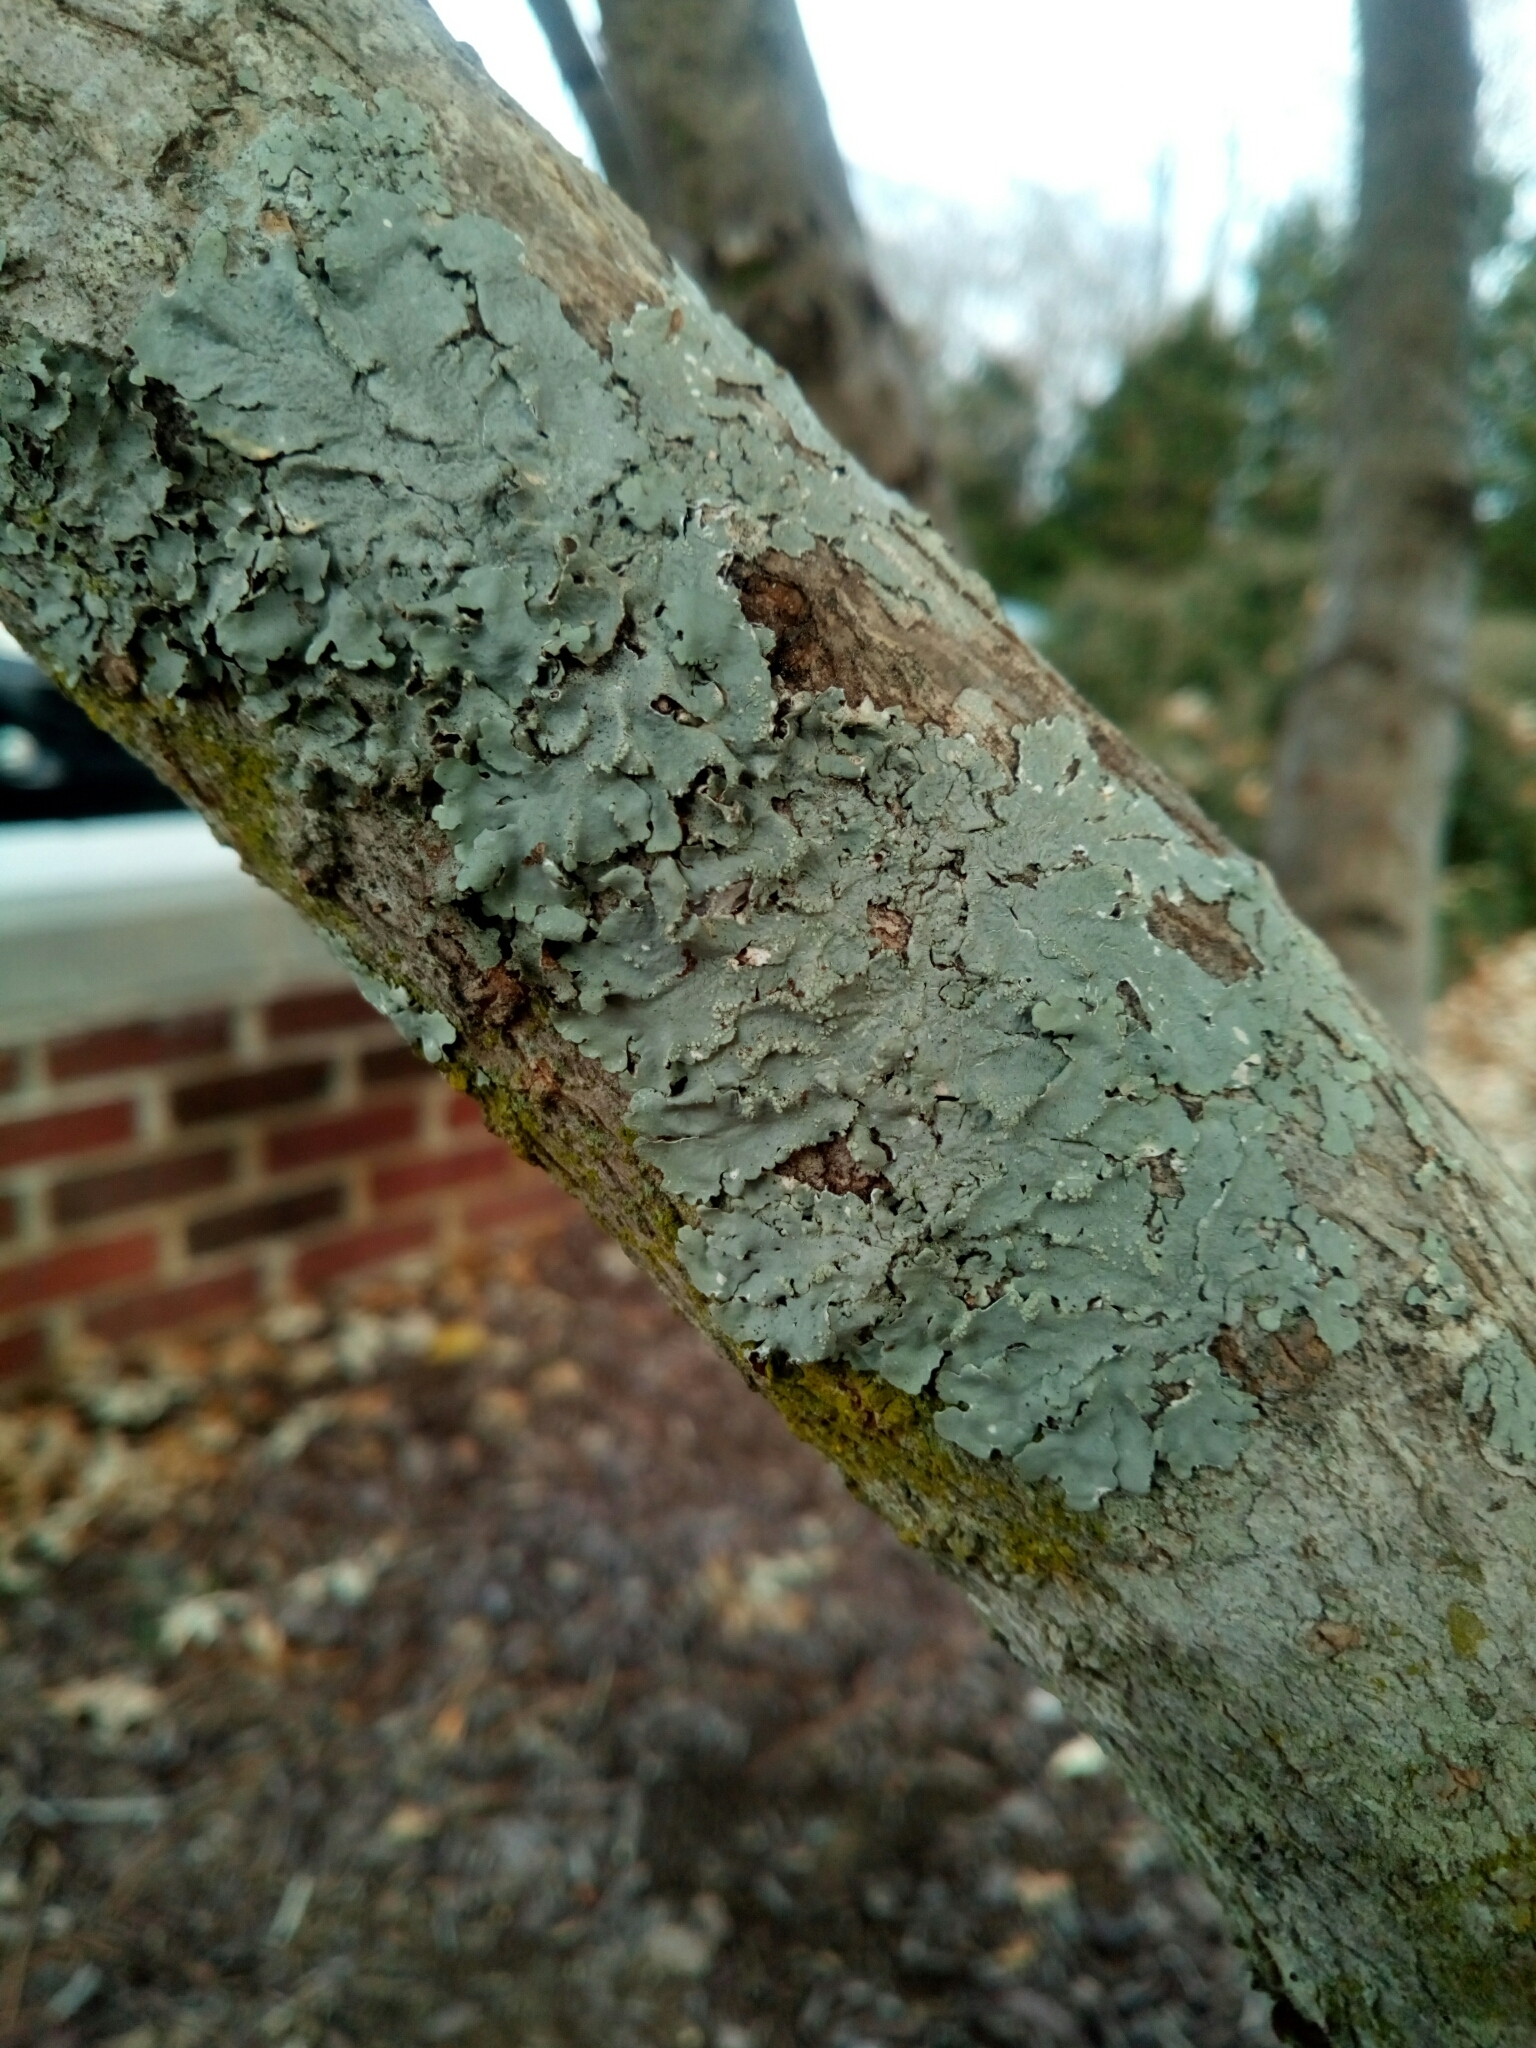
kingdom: Fungi
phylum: Ascomycota
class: Lecanoromycetes
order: Lecanorales
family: Parmeliaceae
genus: Canoparmelia
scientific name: Canoparmelia texana
